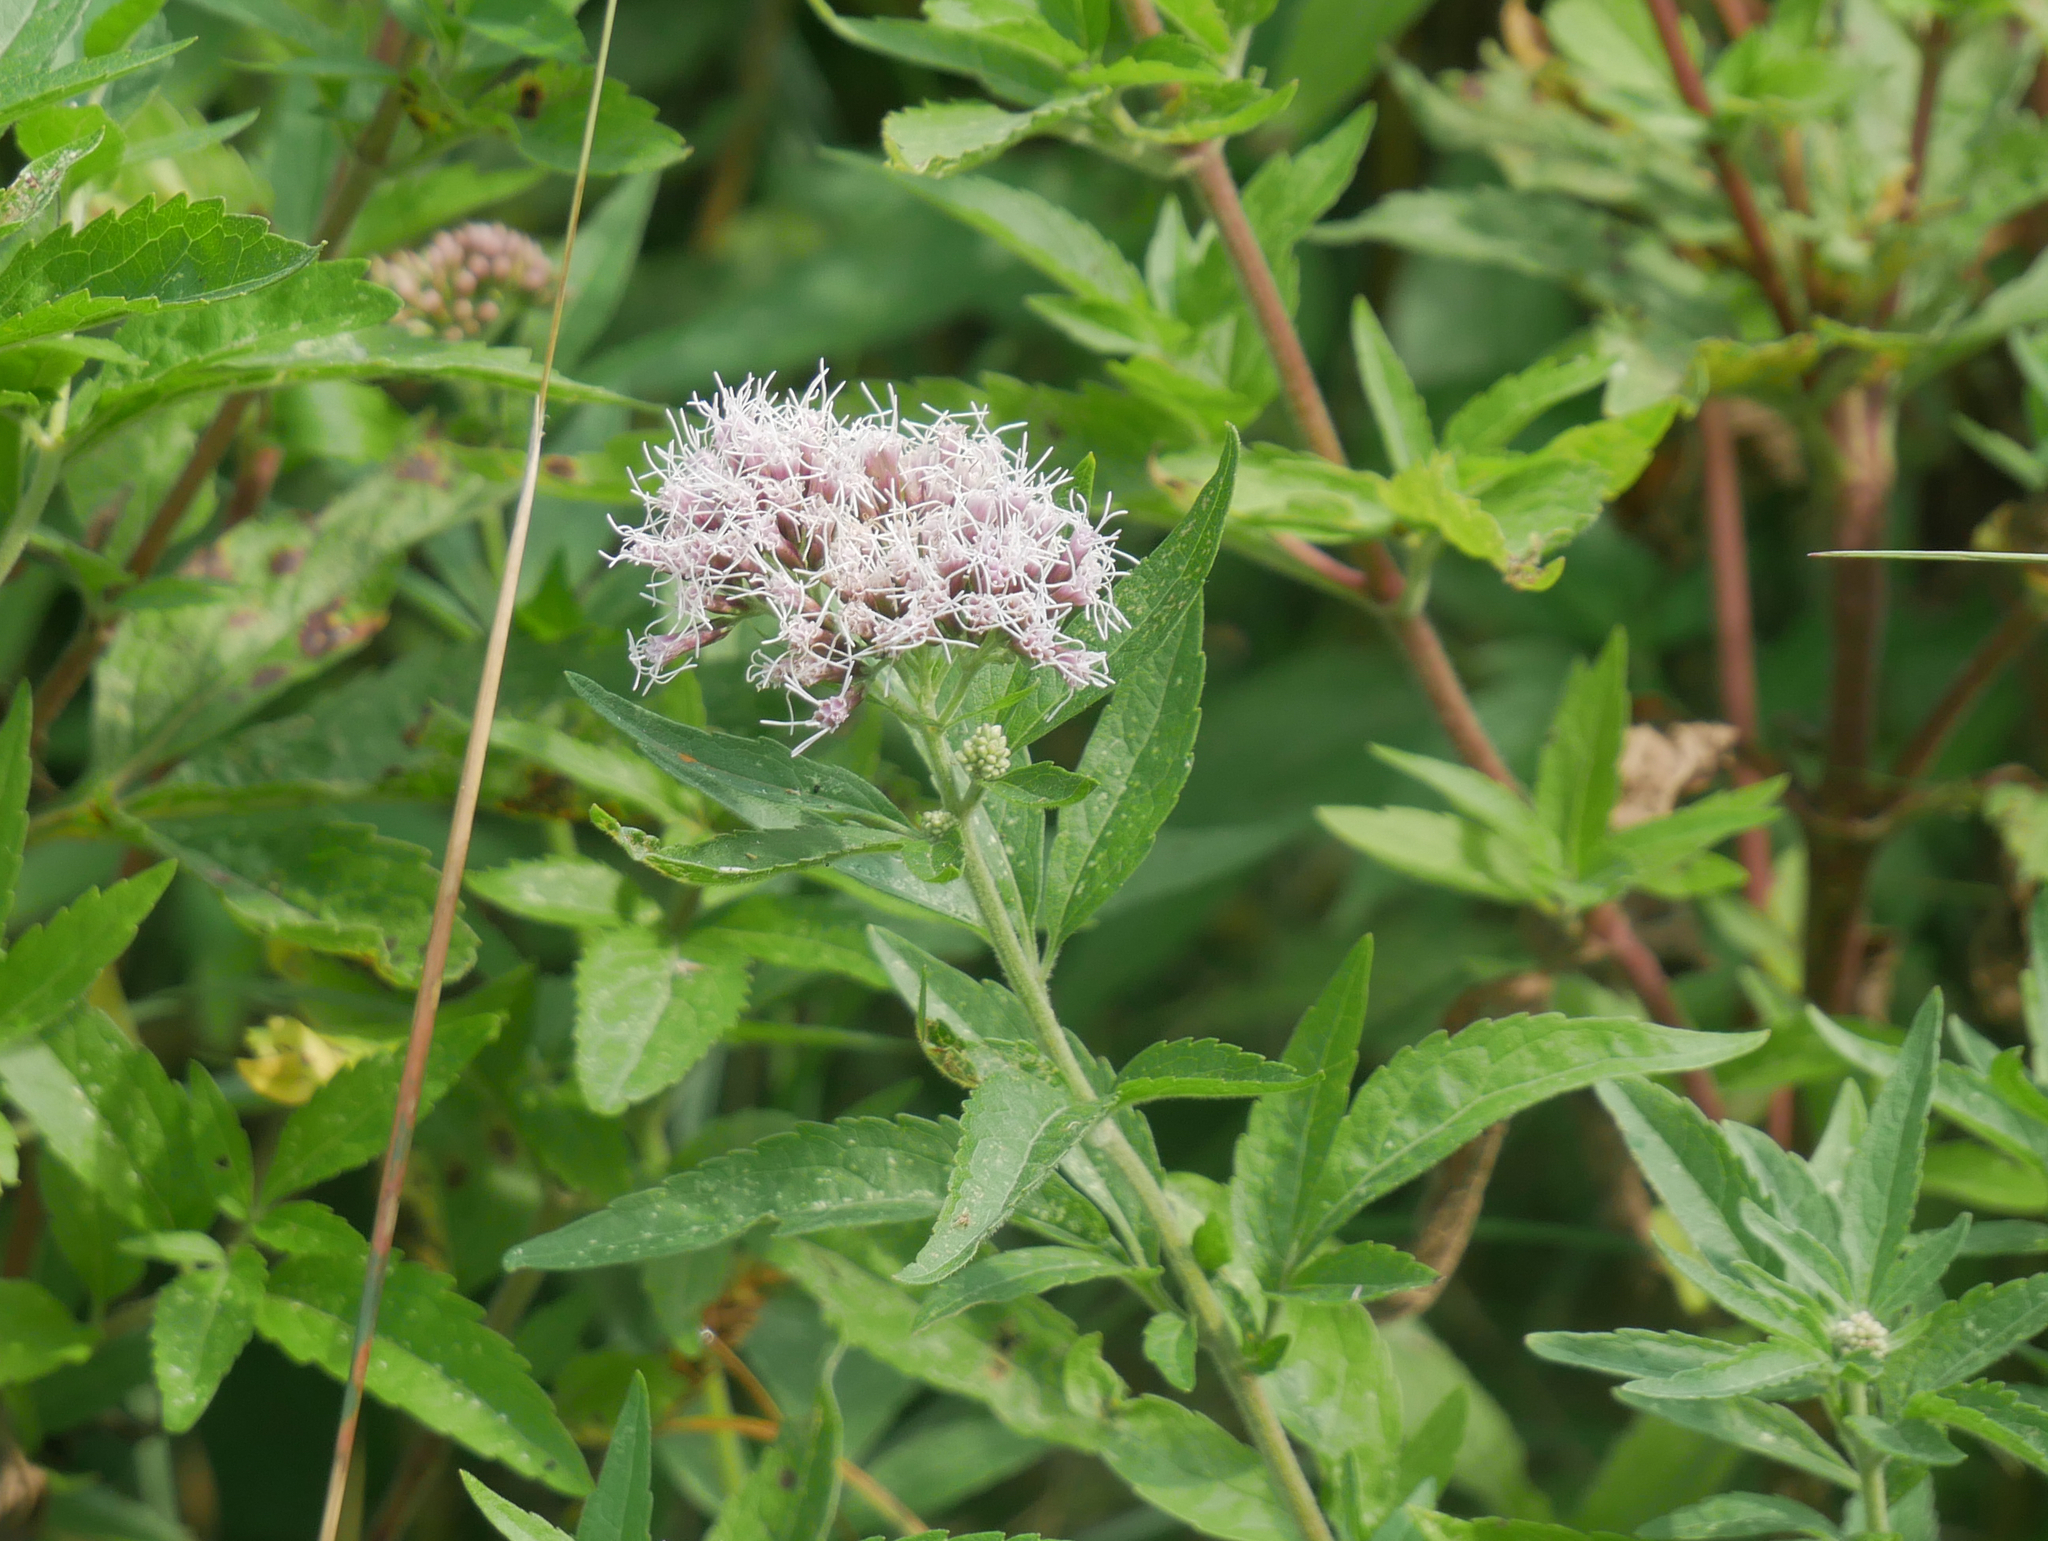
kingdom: Plantae
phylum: Tracheophyta
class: Magnoliopsida
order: Asterales
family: Asteraceae
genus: Eupatorium
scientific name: Eupatorium cannabinum
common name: Hemp-agrimony
